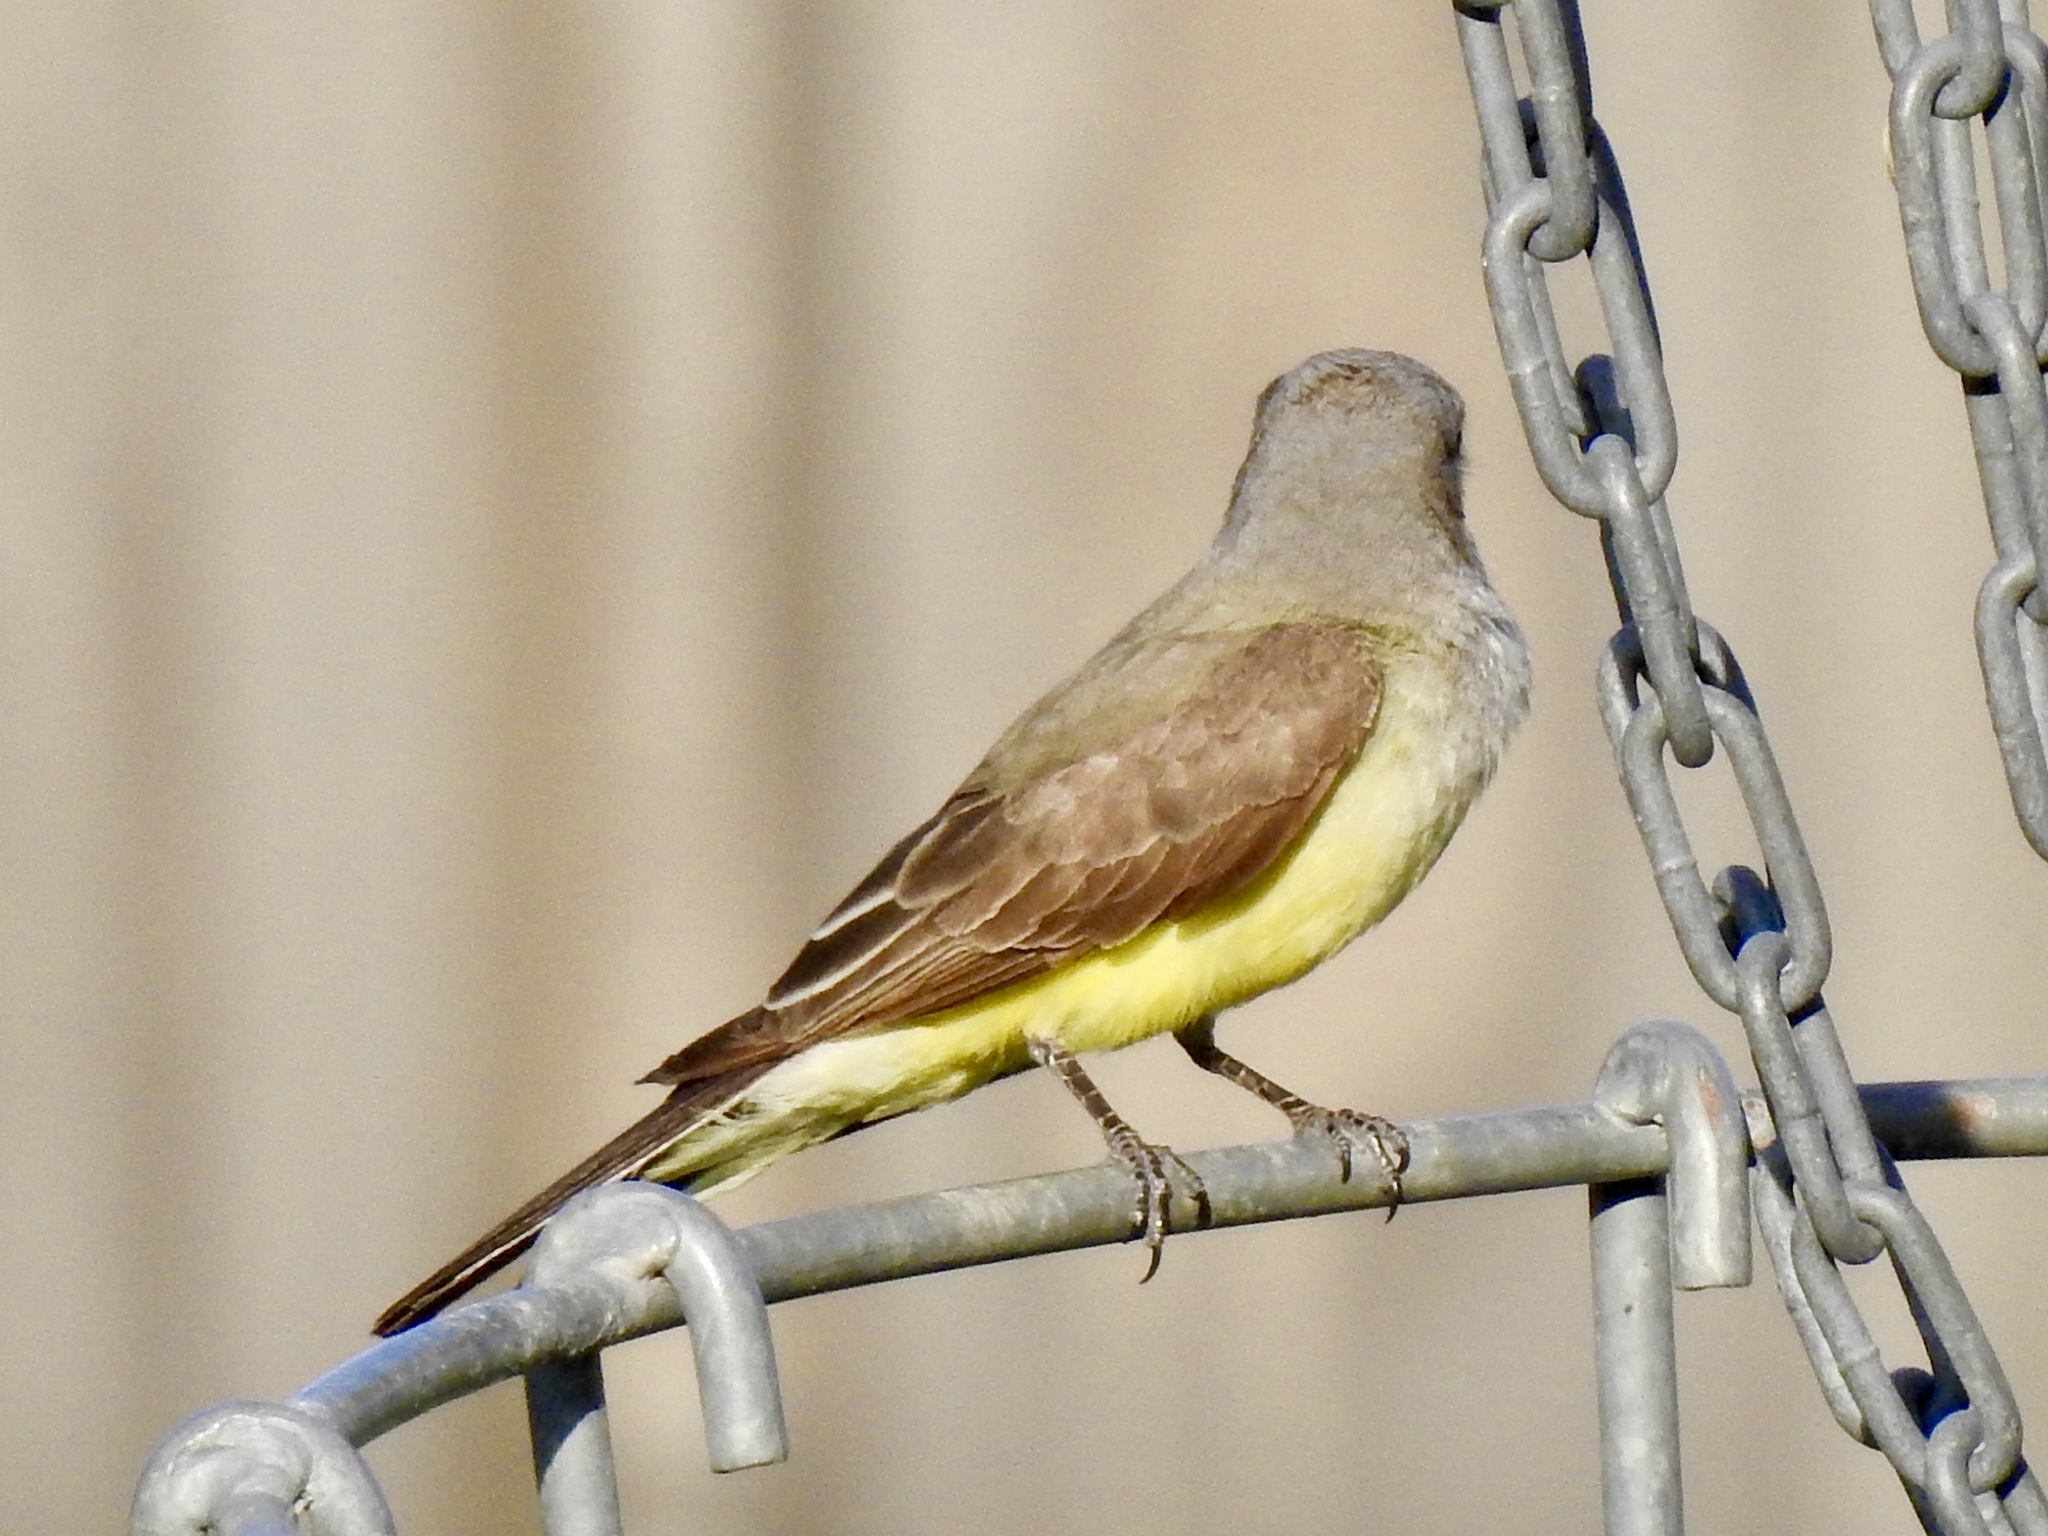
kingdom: Animalia
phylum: Chordata
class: Aves
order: Passeriformes
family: Tyrannidae
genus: Tyrannus
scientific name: Tyrannus verticalis
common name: Western kingbird
